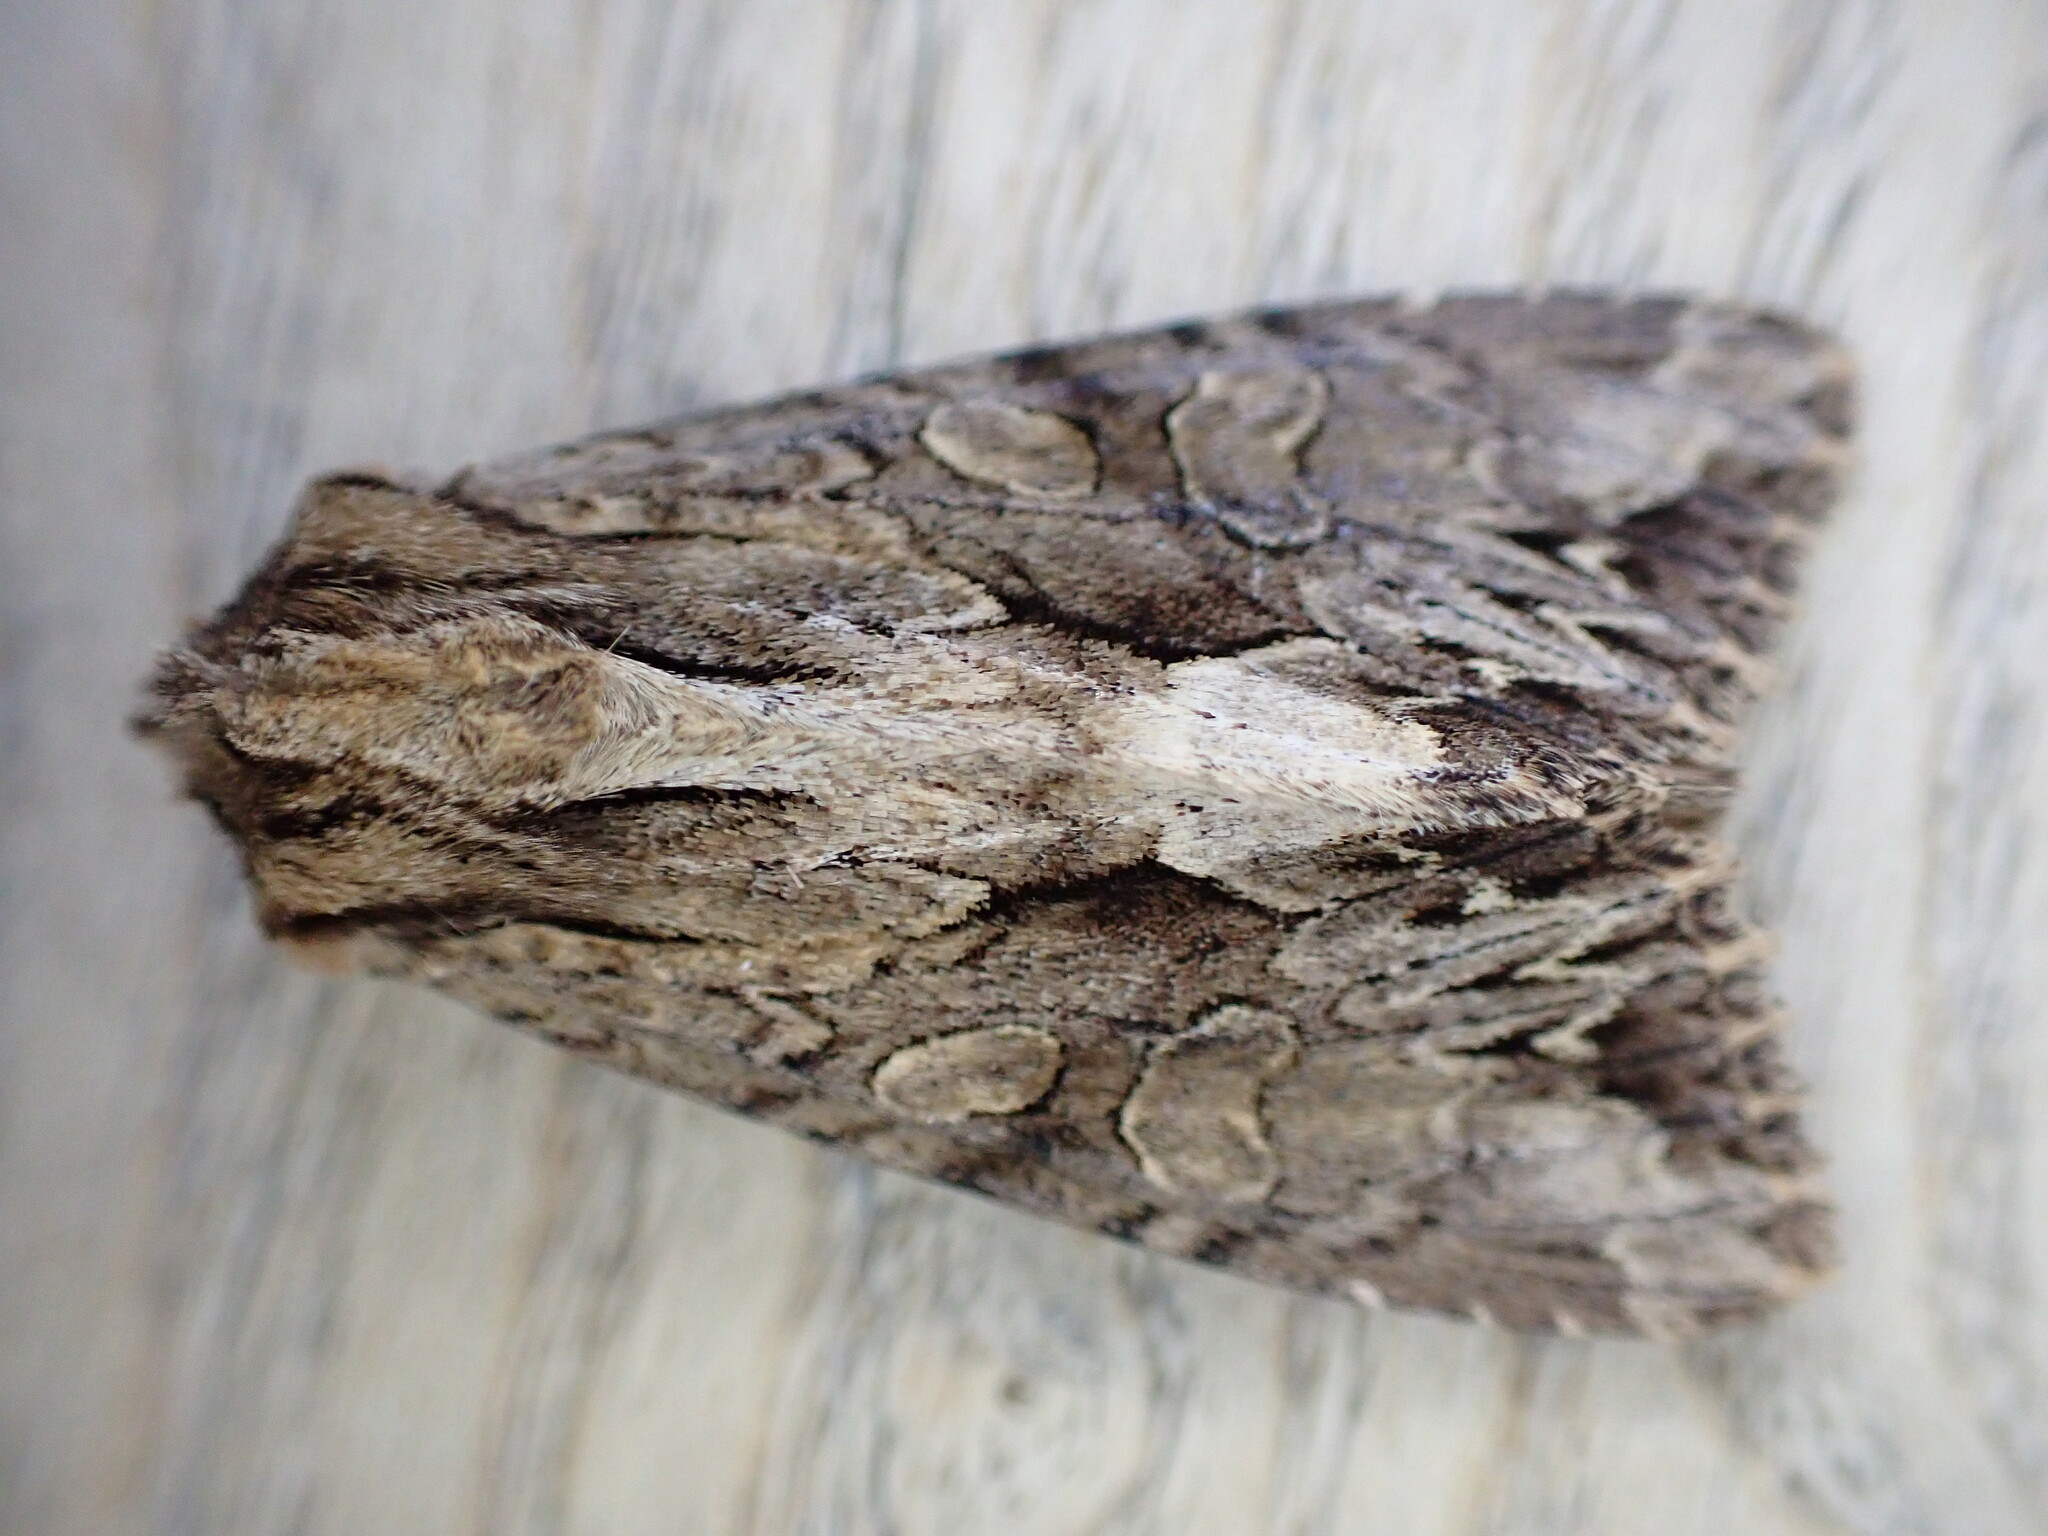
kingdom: Animalia
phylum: Arthropoda
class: Insecta
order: Lepidoptera
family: Noctuidae
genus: Apamea
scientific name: Apamea monoglypha
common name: Dark arches
